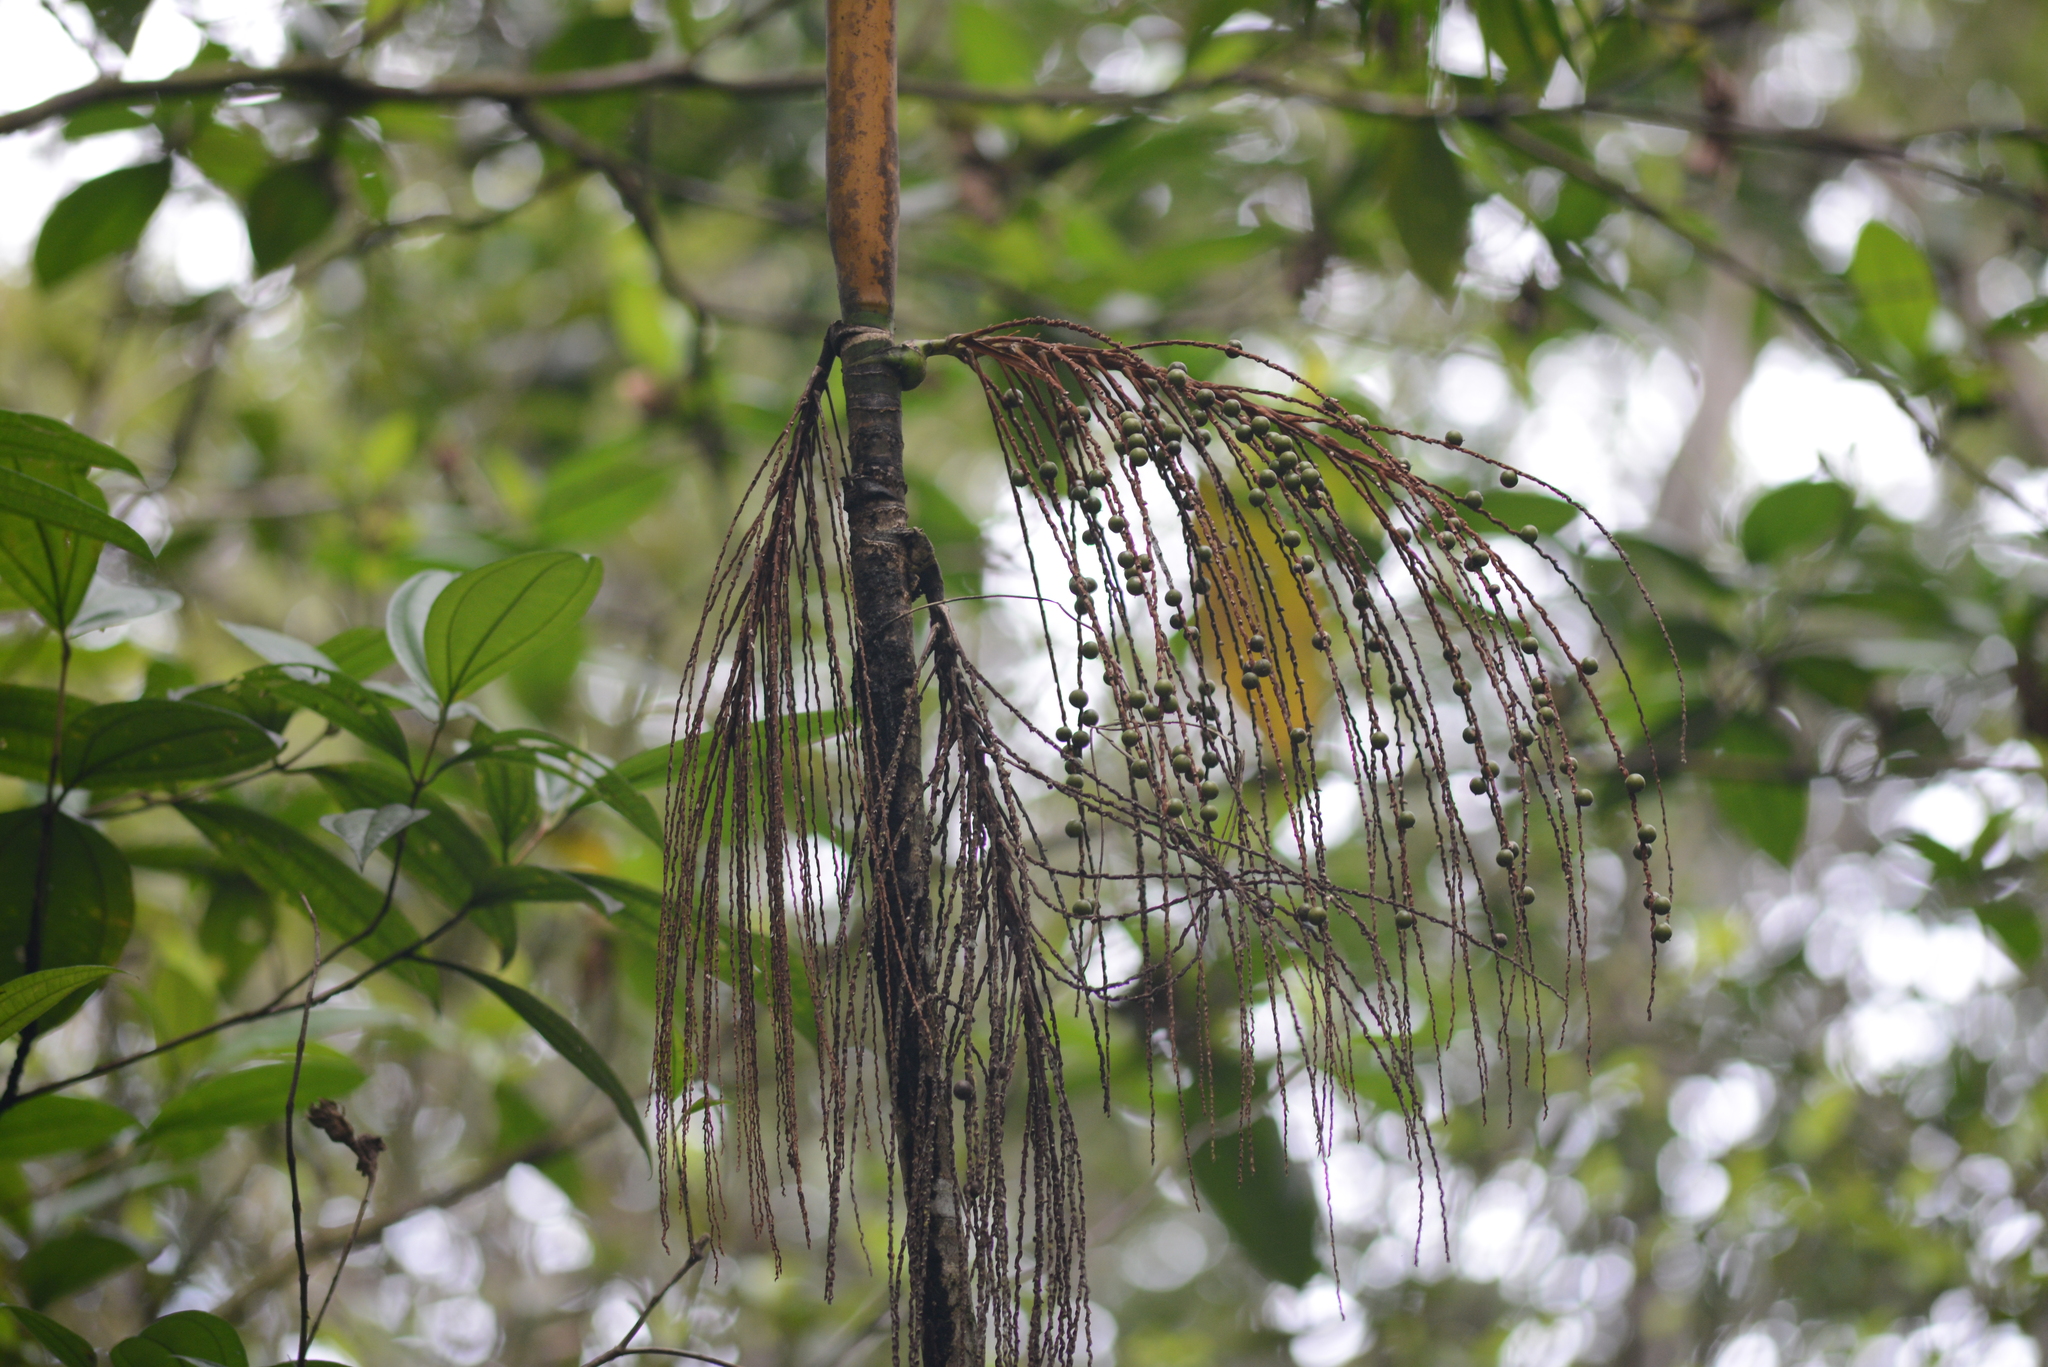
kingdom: Plantae
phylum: Tracheophyta
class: Liliopsida
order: Arecales
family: Arecaceae
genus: Euterpe
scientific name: Euterpe edulis
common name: Assai palm
